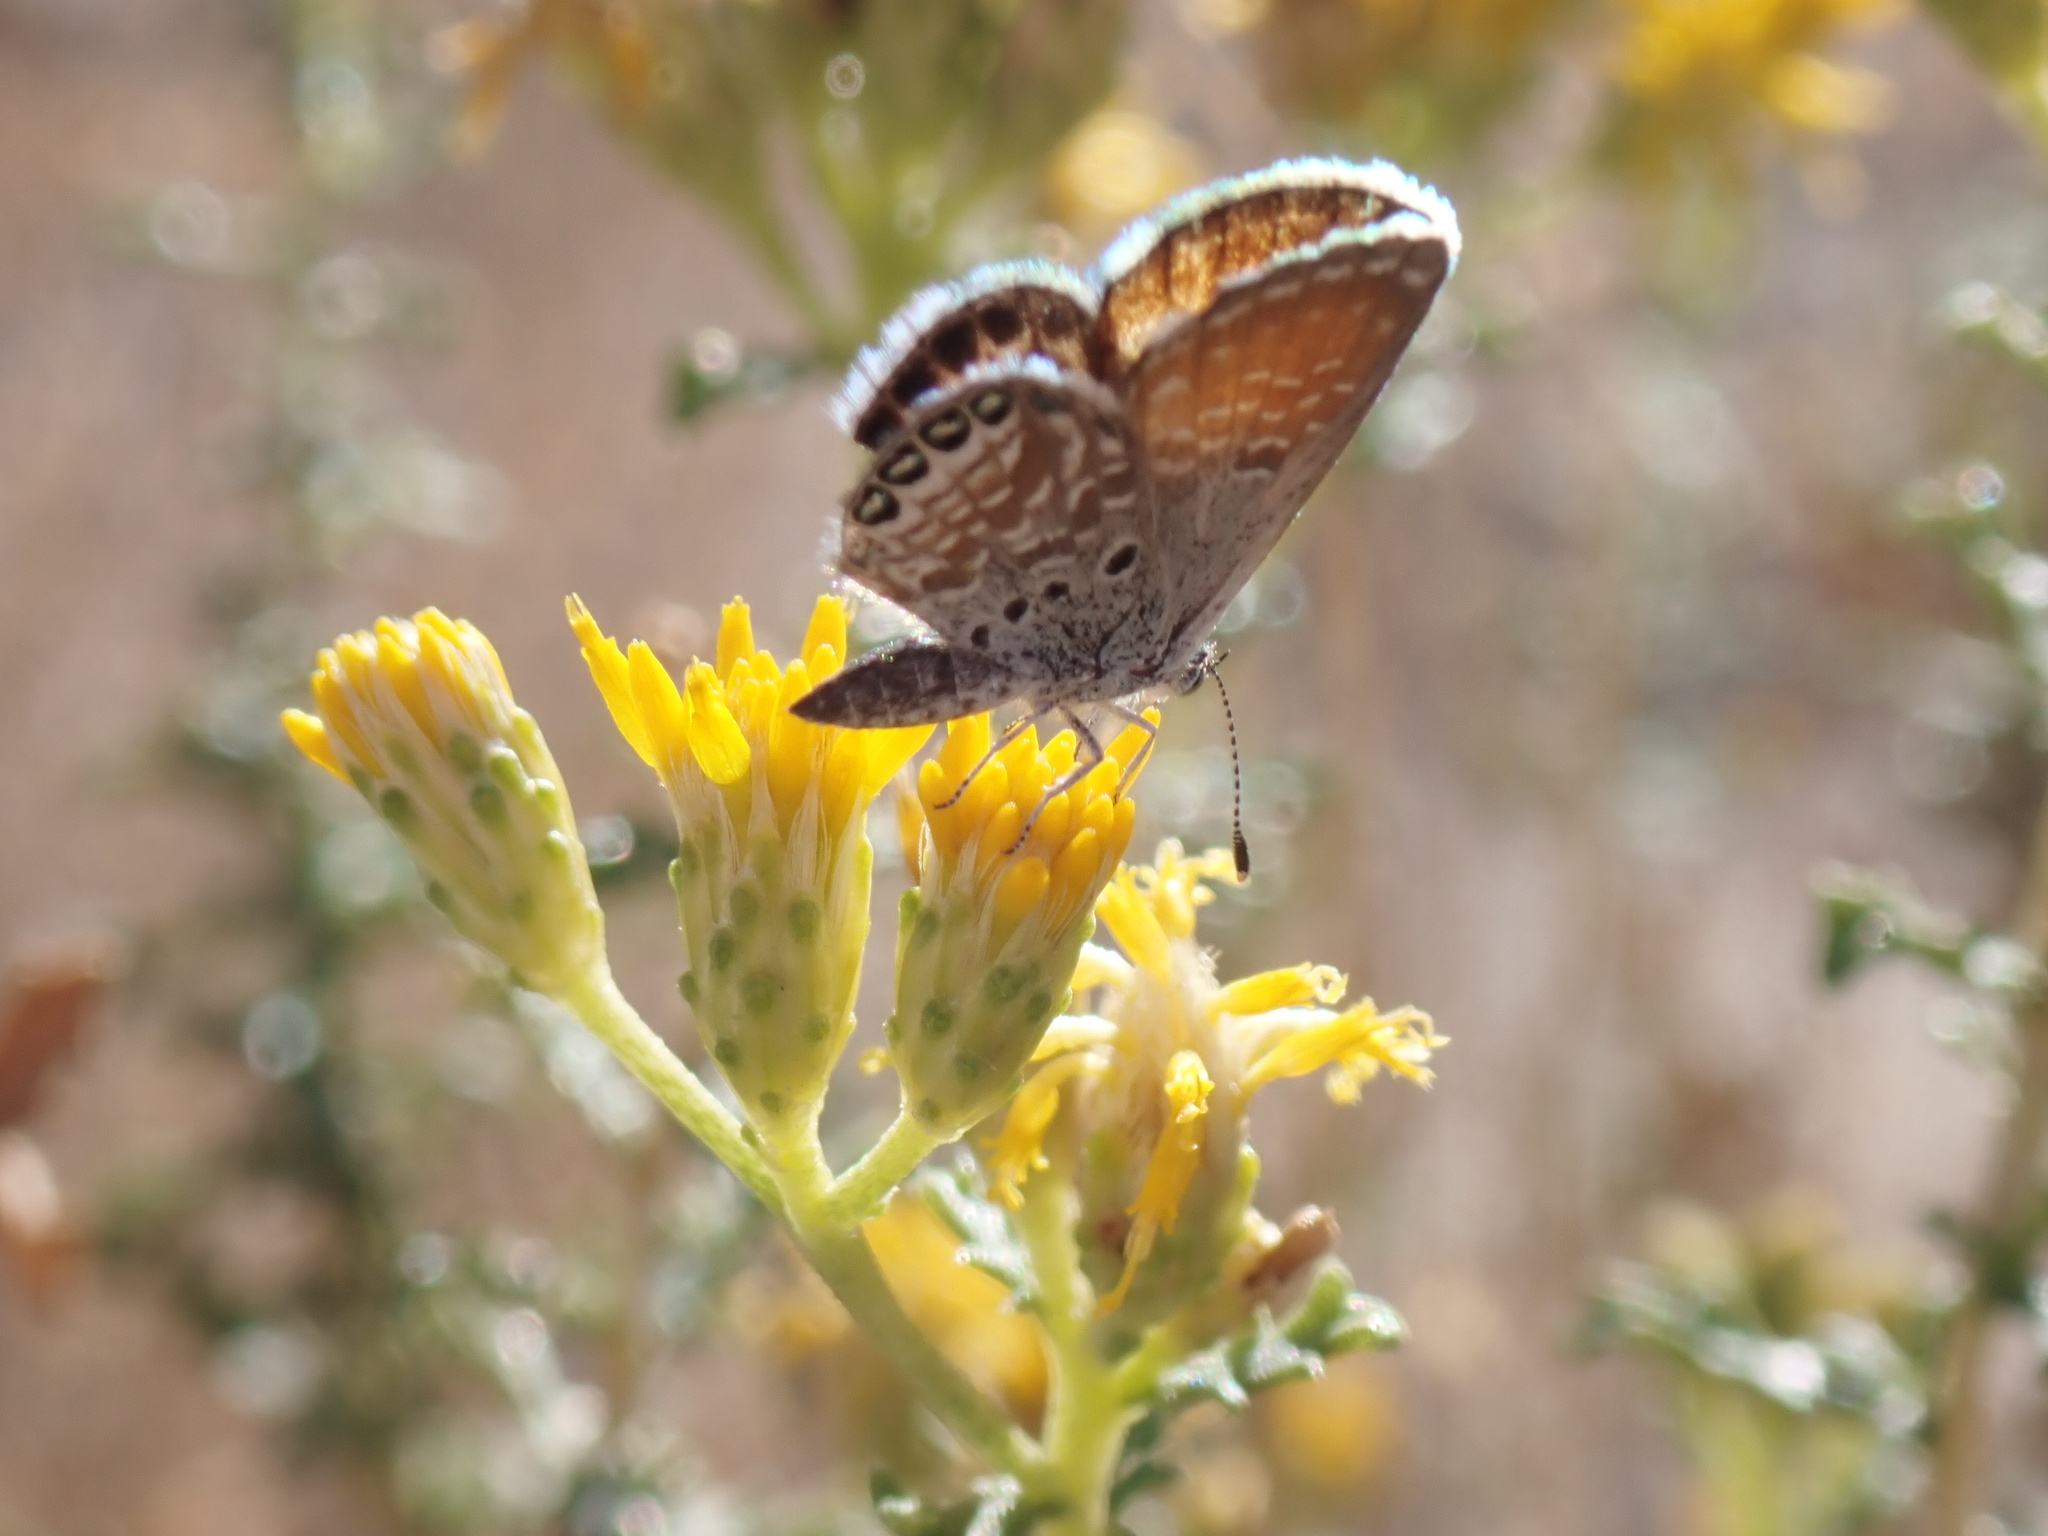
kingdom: Animalia
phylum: Arthropoda
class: Insecta
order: Lepidoptera
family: Lycaenidae
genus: Brephidium
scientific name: Brephidium exilis
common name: Pygmy blue
